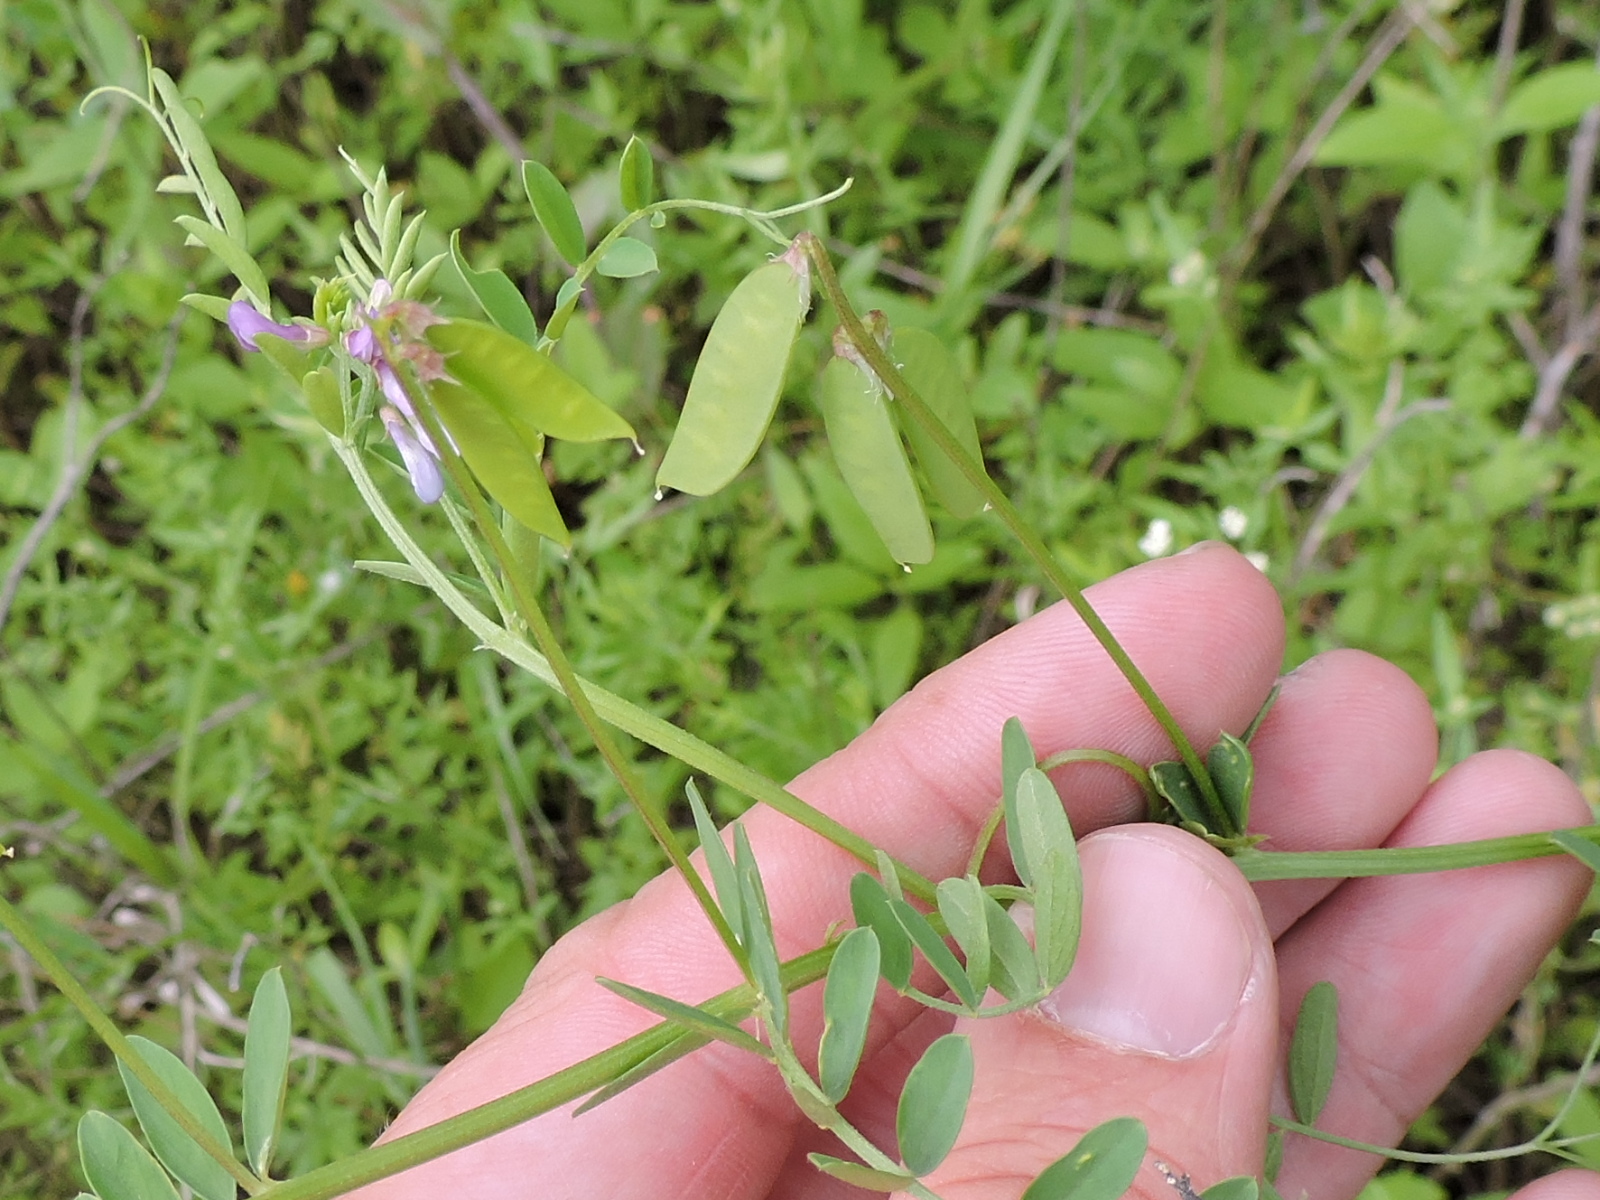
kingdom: Plantae
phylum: Tracheophyta
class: Magnoliopsida
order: Fabales
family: Fabaceae
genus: Vicia
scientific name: Vicia ludoviciana
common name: Louisiana vetch
